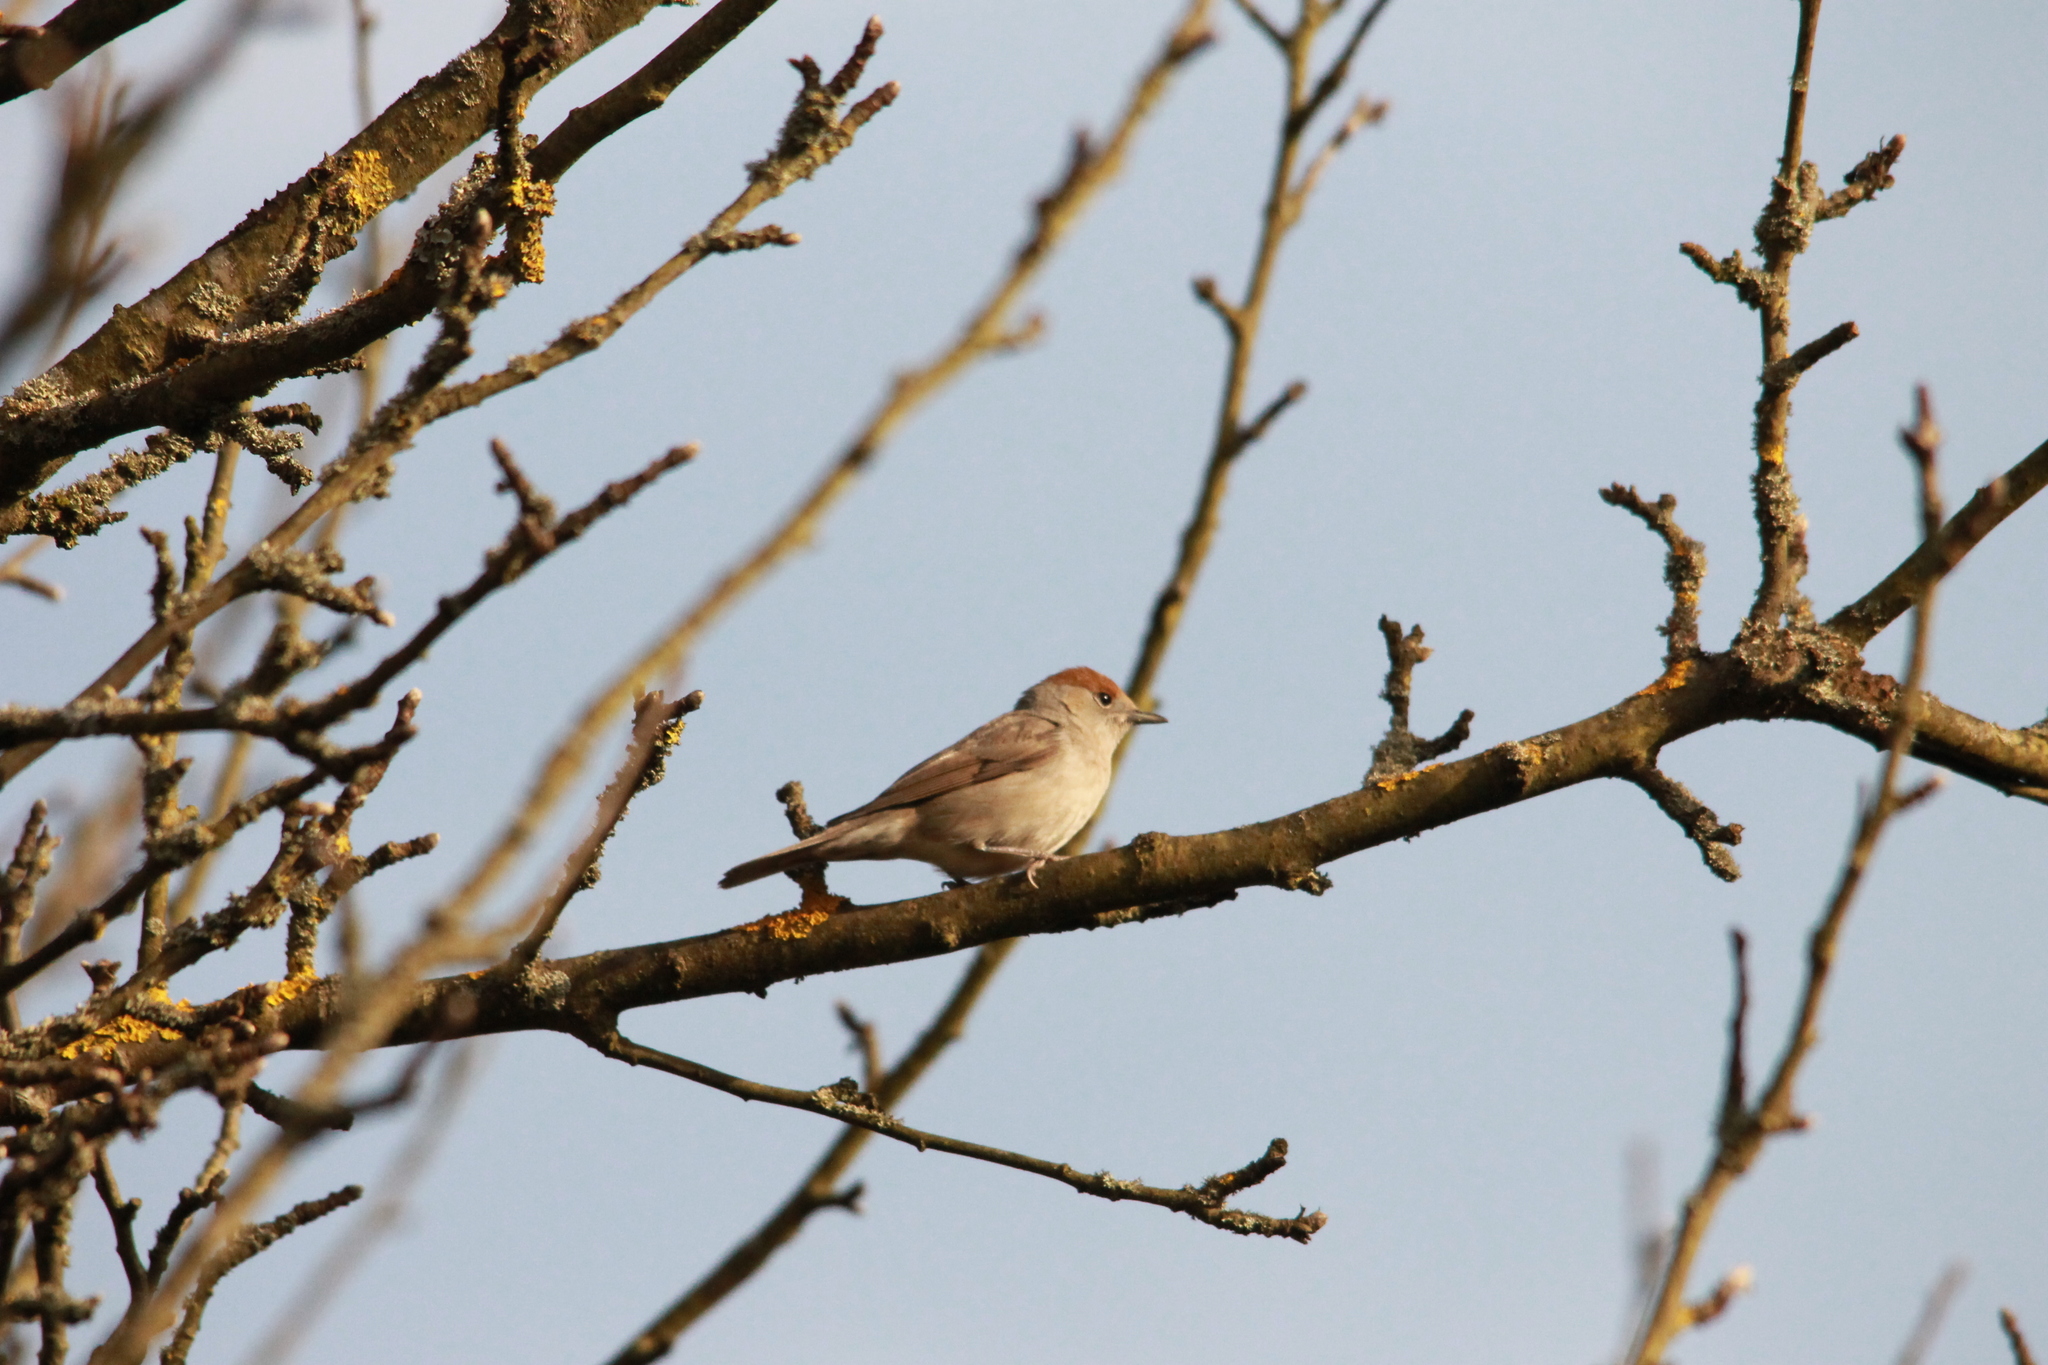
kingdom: Animalia
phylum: Chordata
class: Aves
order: Passeriformes
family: Sylviidae
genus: Sylvia
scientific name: Sylvia atricapilla
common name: Eurasian blackcap
